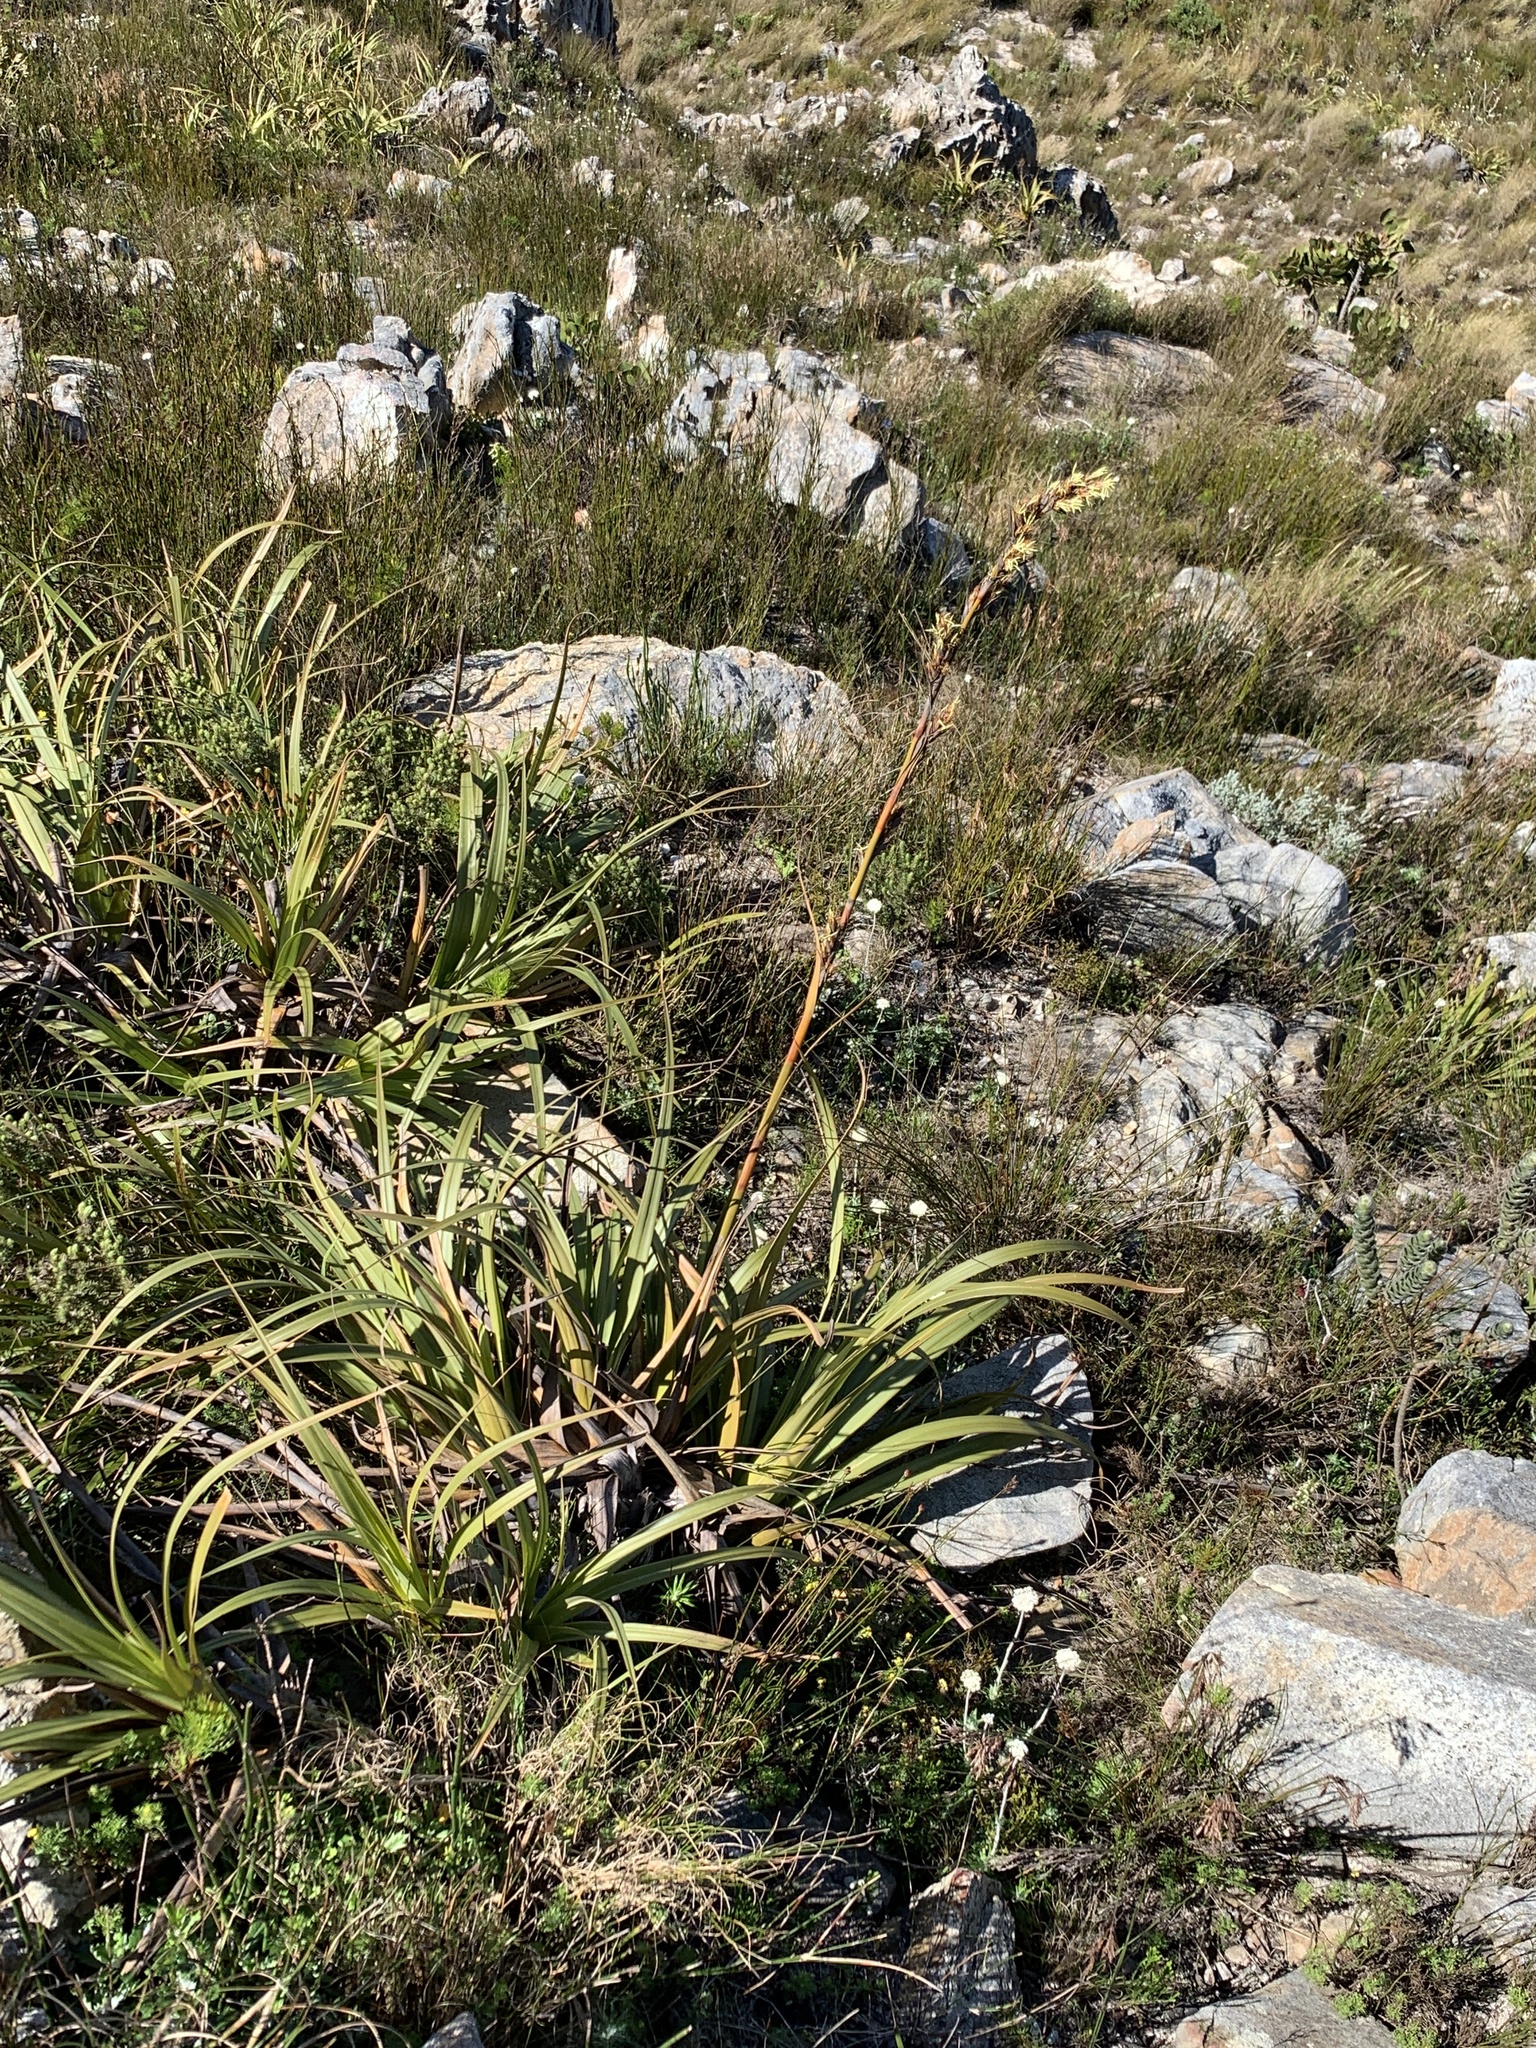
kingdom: Plantae
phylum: Tracheophyta
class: Liliopsida
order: Poales
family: Cyperaceae
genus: Tetraria
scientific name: Tetraria thermalis
